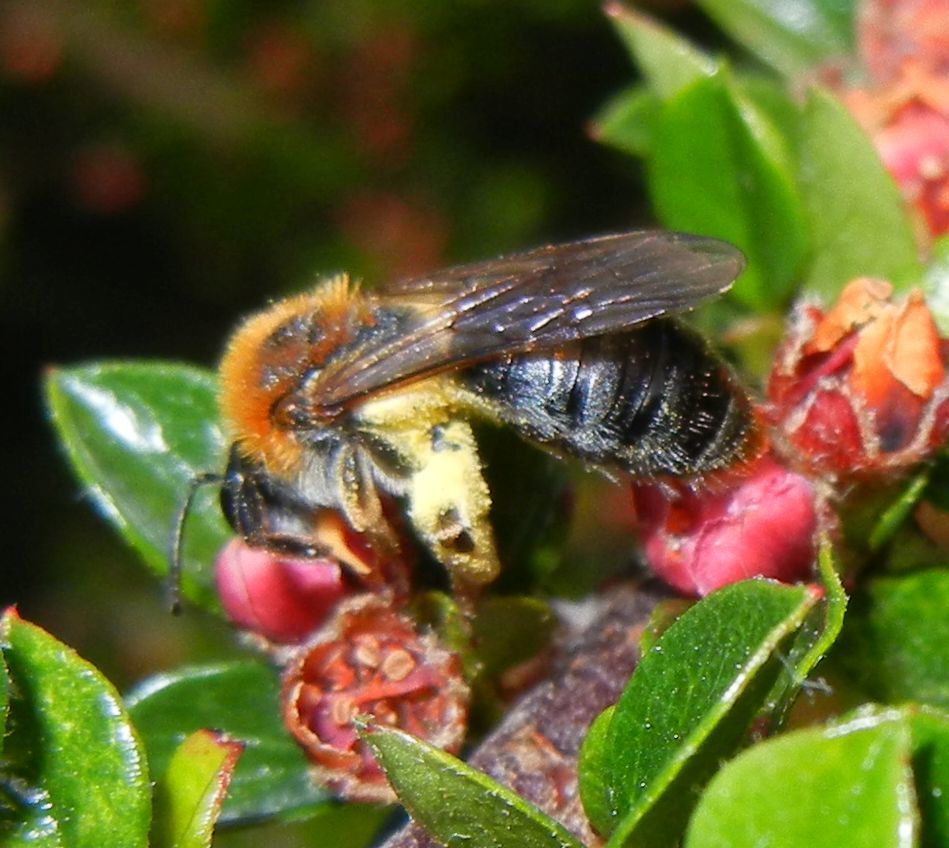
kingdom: Animalia
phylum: Arthropoda
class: Insecta
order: Hymenoptera
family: Andrenidae
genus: Andrena
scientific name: Andrena haemorrhoa
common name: Early mining bee
